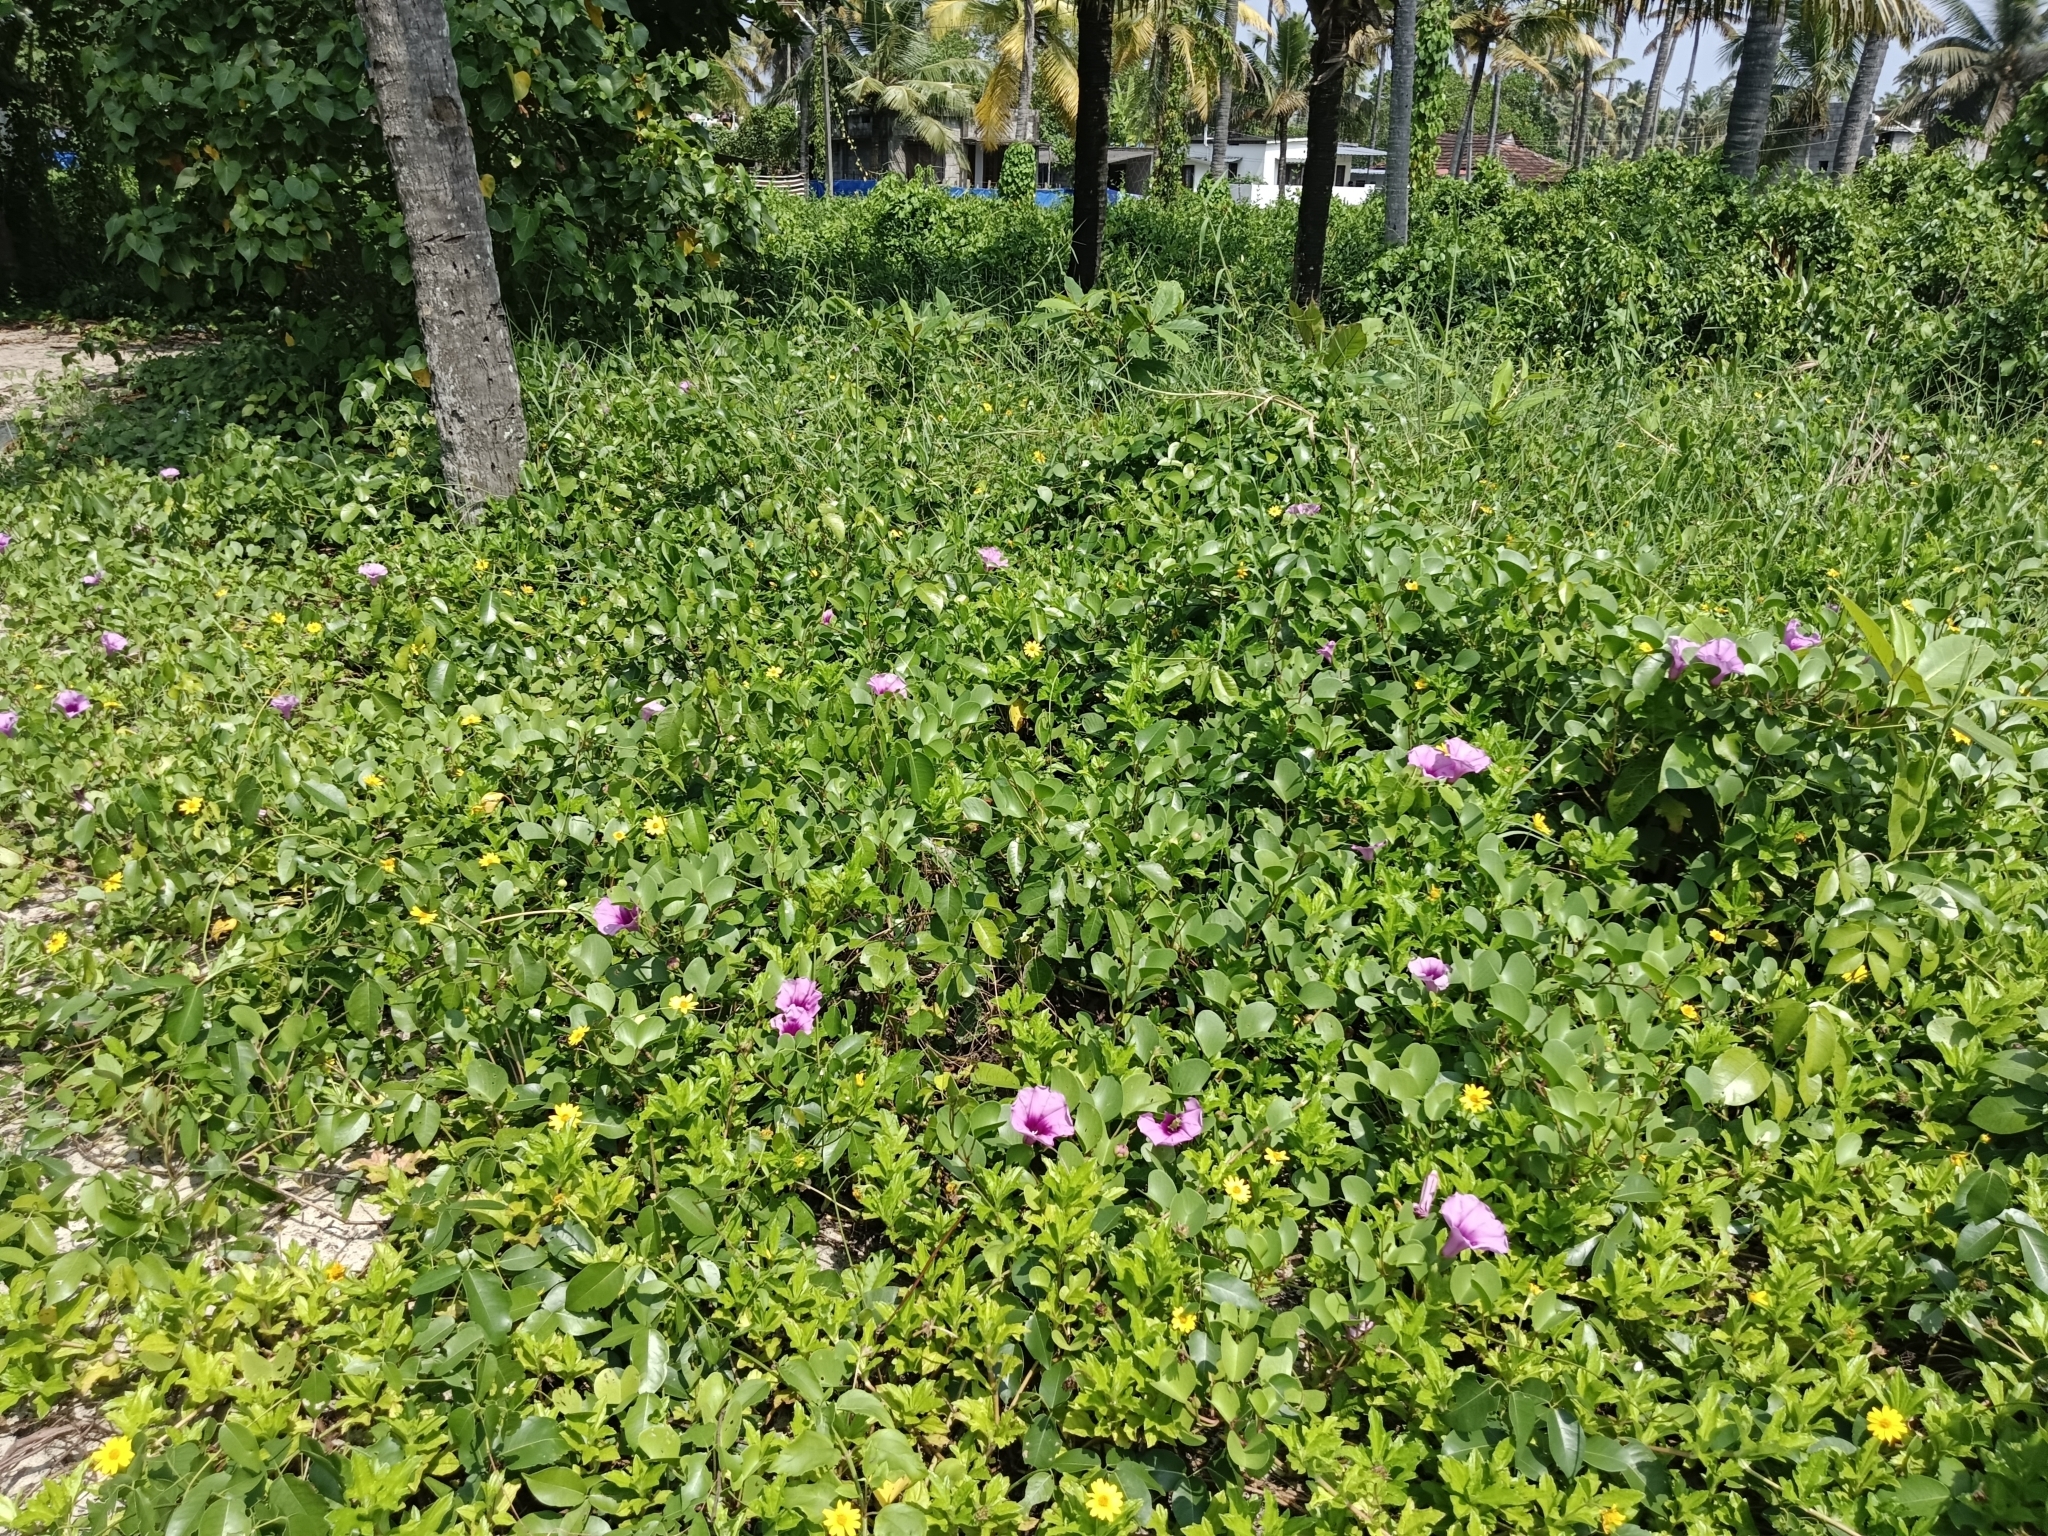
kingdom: Plantae
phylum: Tracheophyta
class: Magnoliopsida
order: Solanales
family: Convolvulaceae
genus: Ipomoea
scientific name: Ipomoea pes-caprae
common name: Beach morning glory
